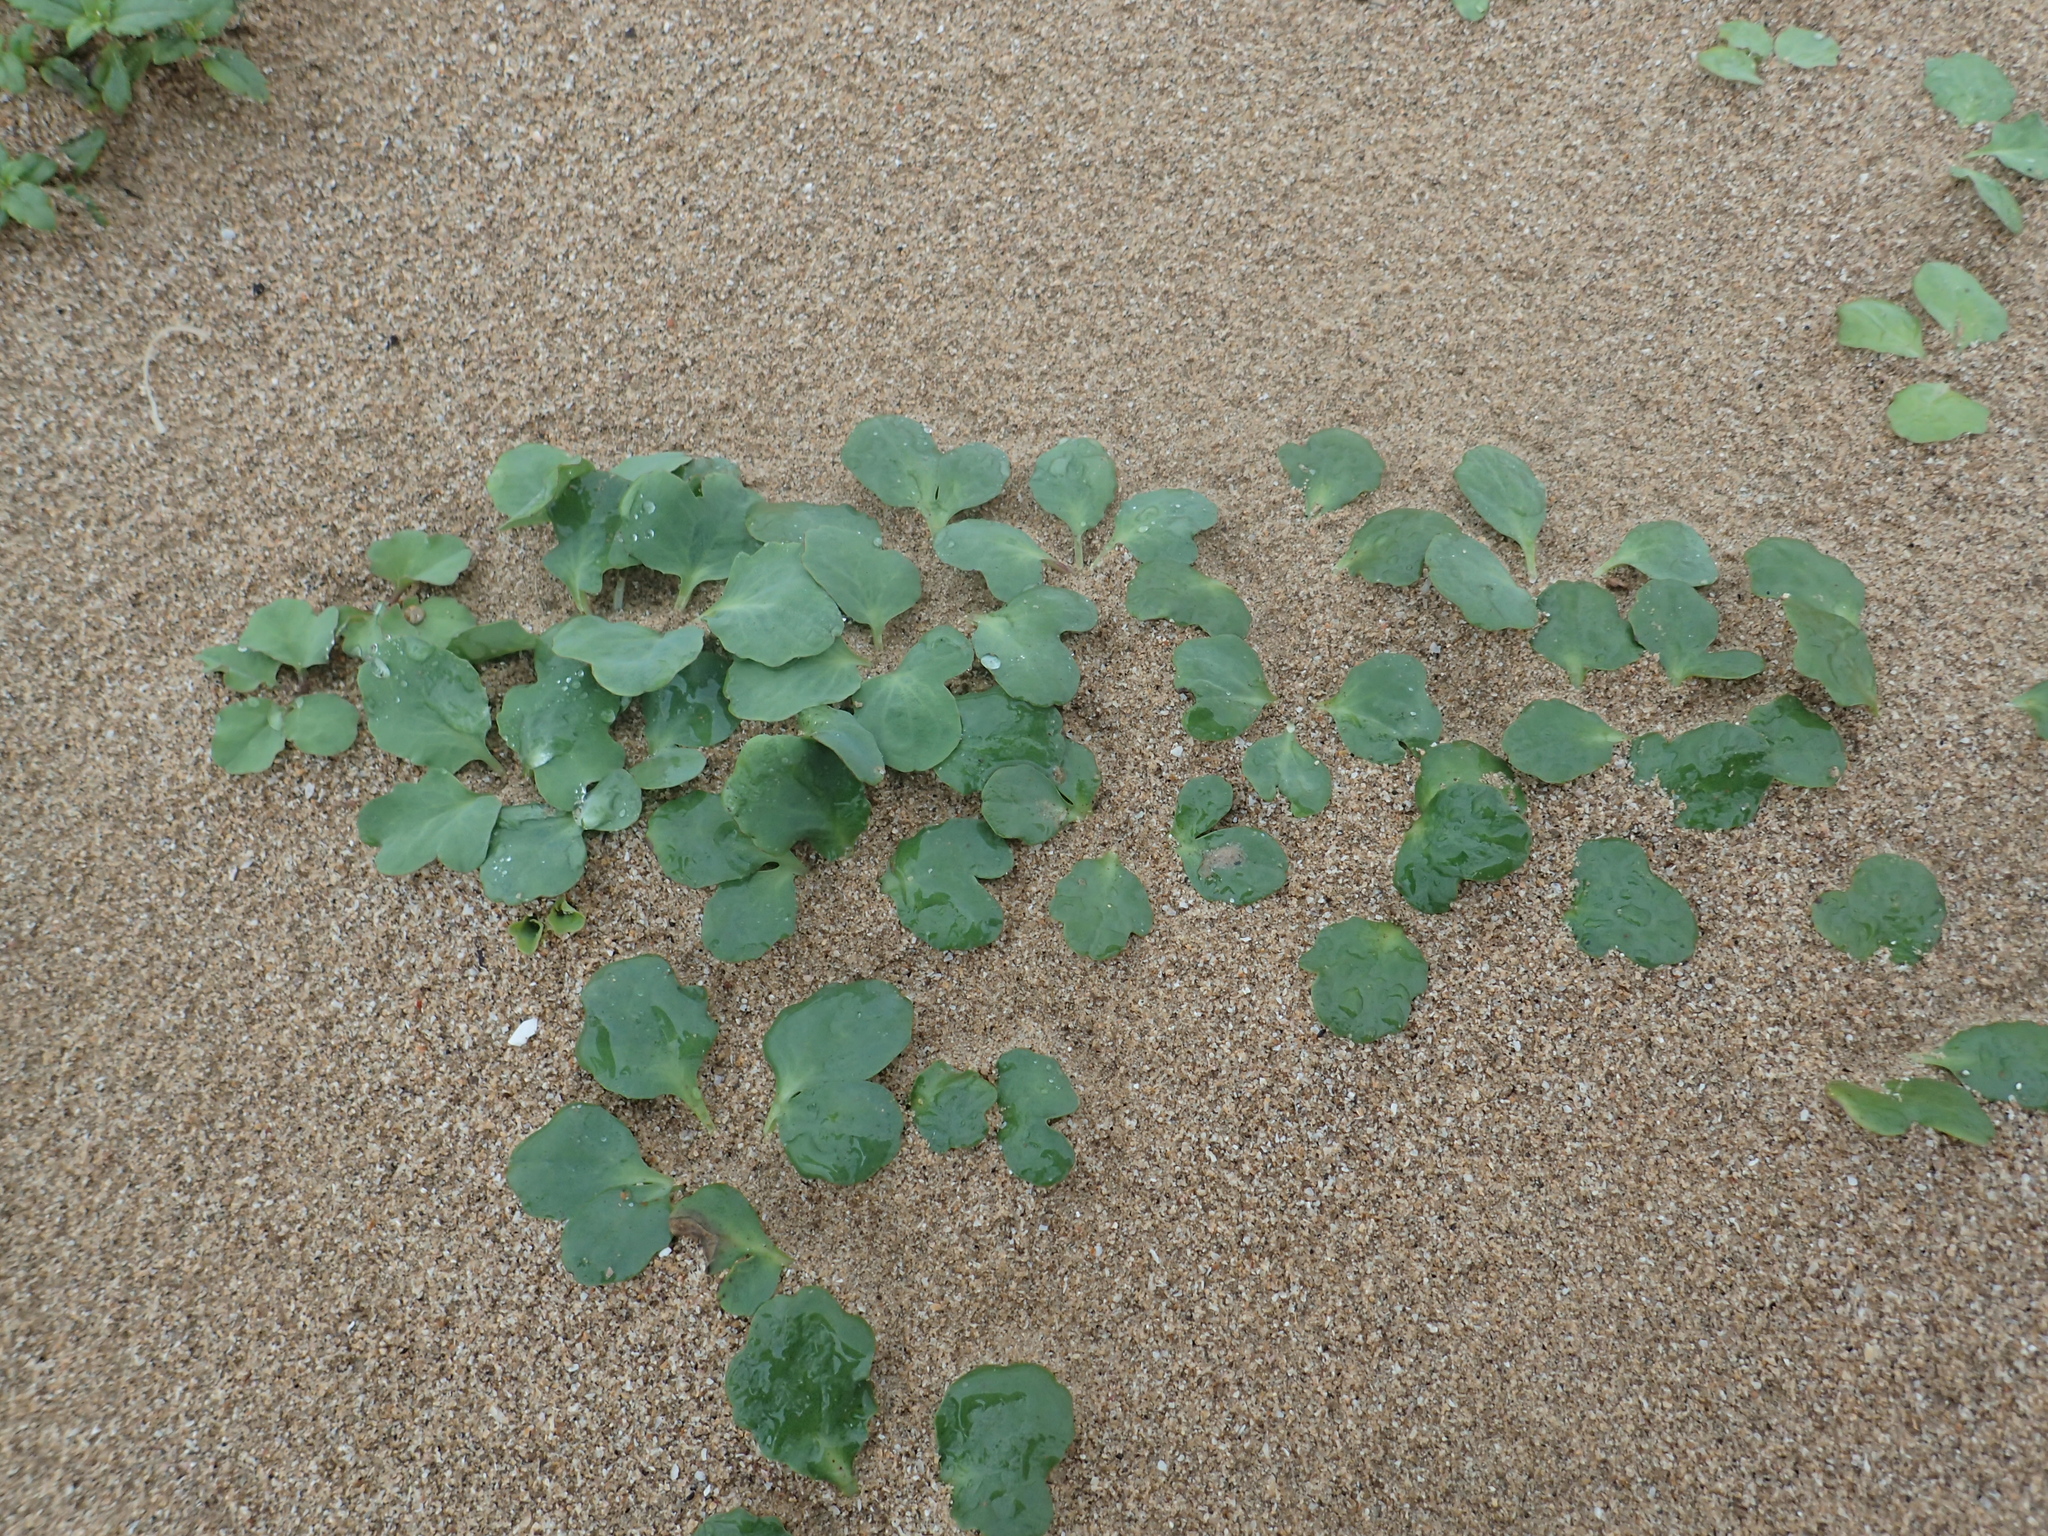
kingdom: Plantae
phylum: Tracheophyta
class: Magnoliopsida
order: Asterales
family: Asteraceae
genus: Ixeris
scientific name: Ixeris repens
